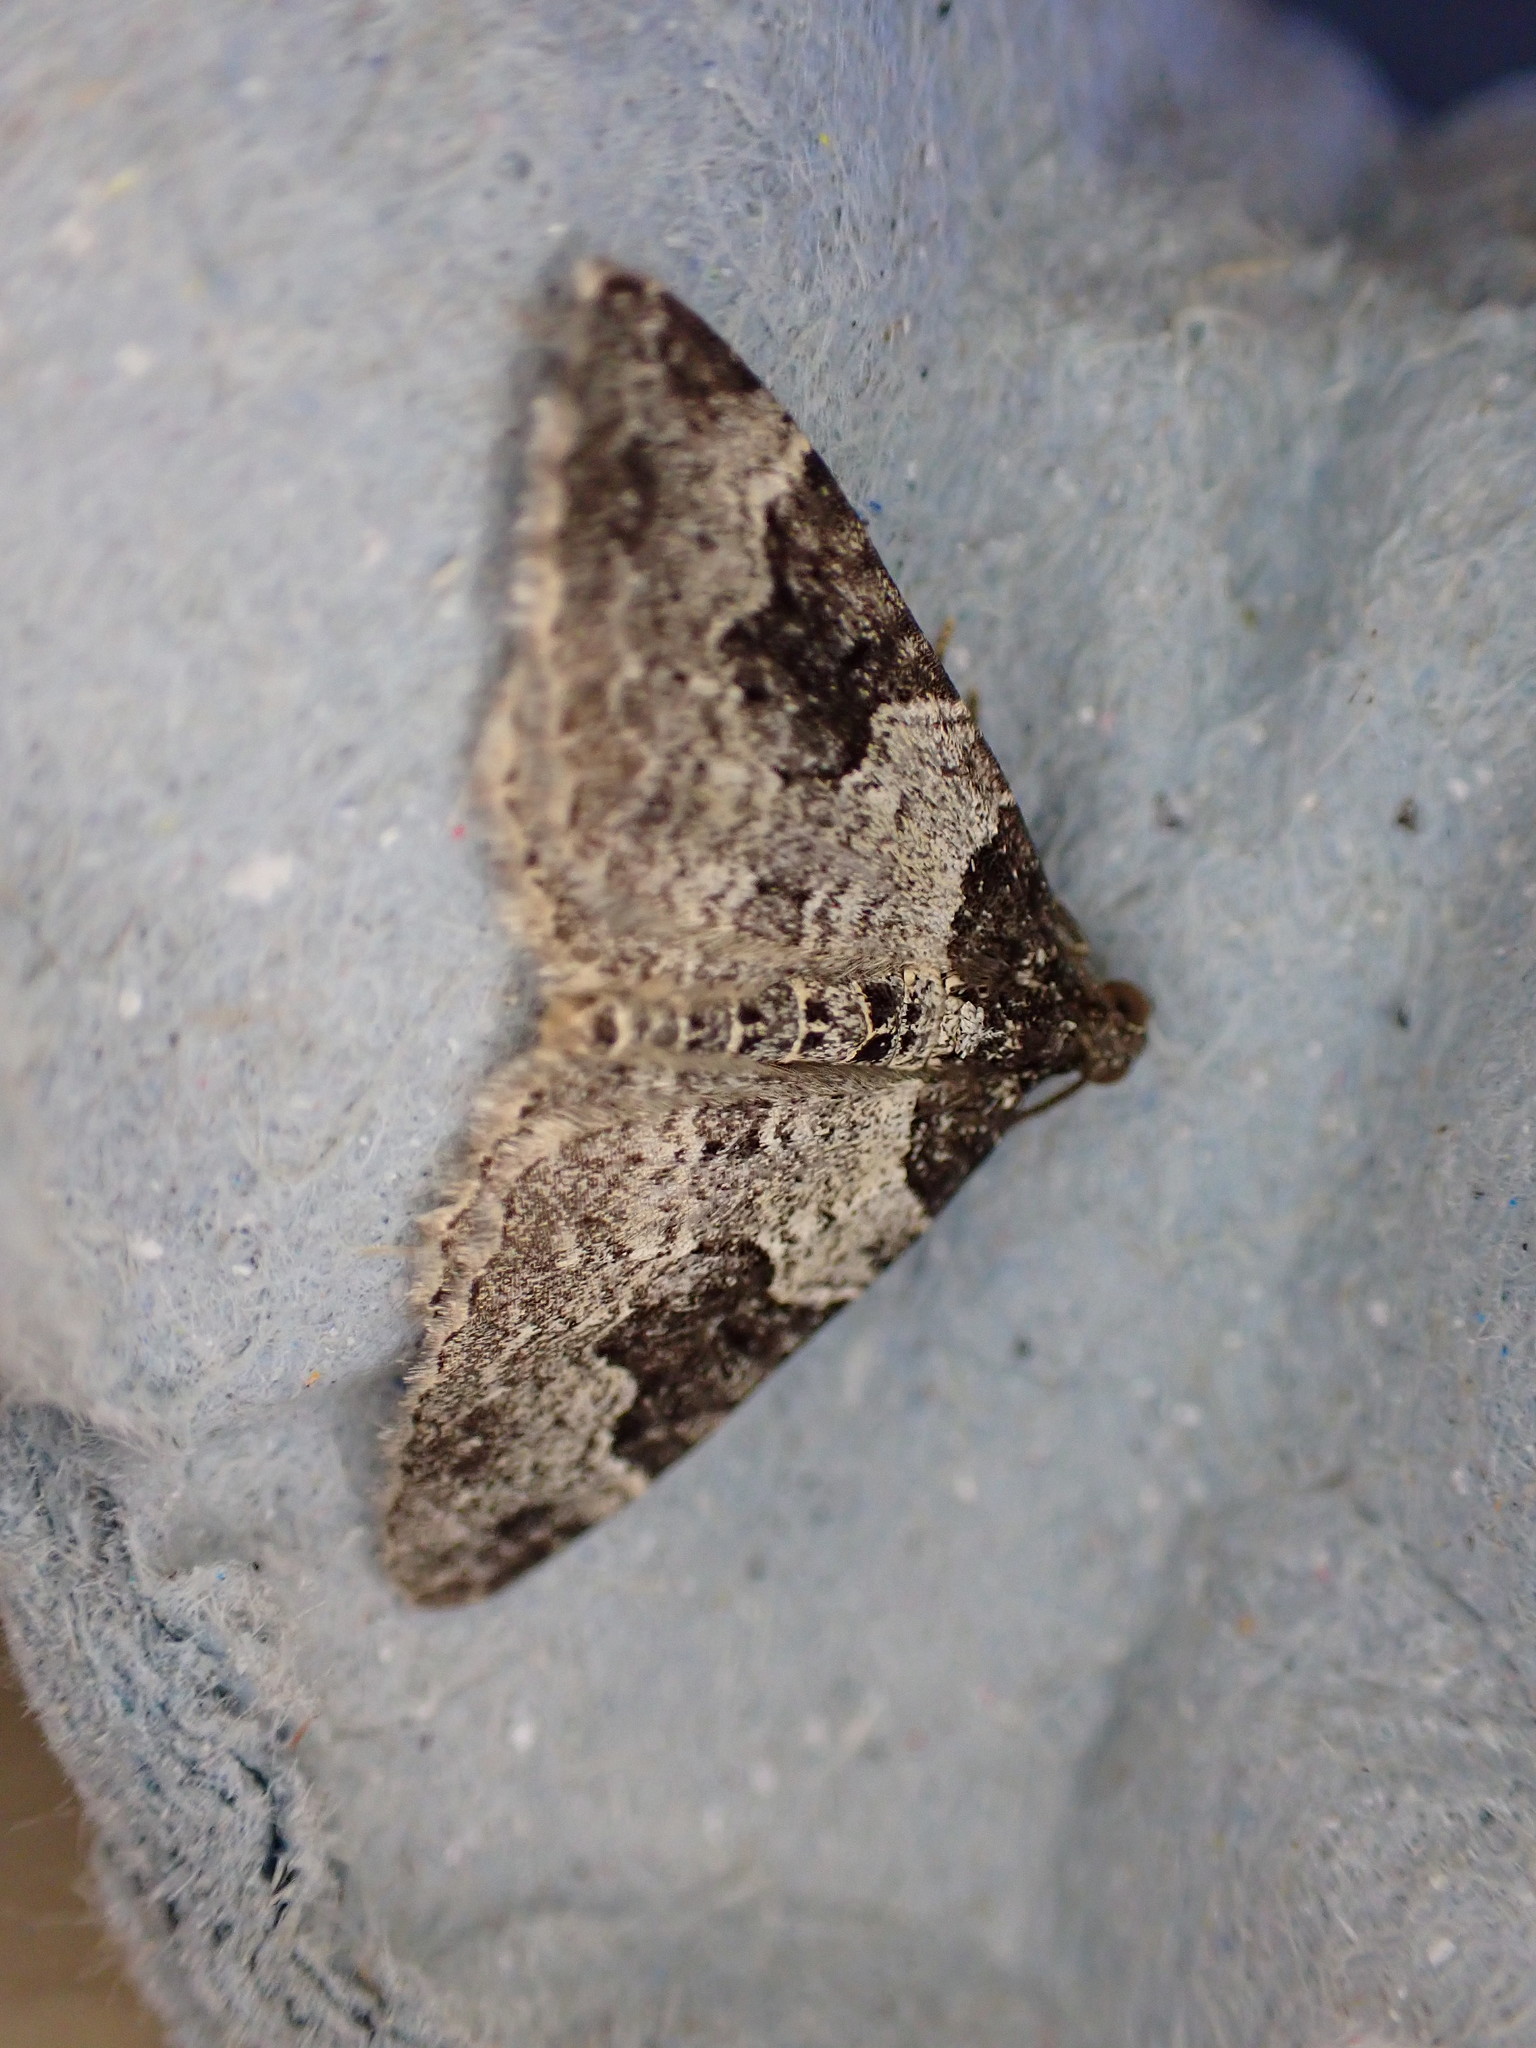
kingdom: Animalia
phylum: Arthropoda
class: Insecta
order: Lepidoptera
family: Geometridae
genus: Xanthorhoe
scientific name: Xanthorhoe fluctuata
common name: Garden carpet
